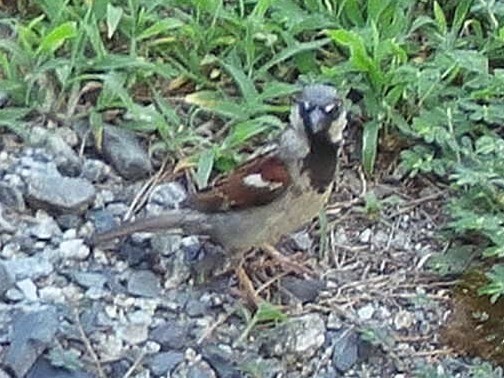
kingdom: Animalia
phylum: Chordata
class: Aves
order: Passeriformes
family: Passeridae
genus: Passer
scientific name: Passer domesticus
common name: House sparrow
